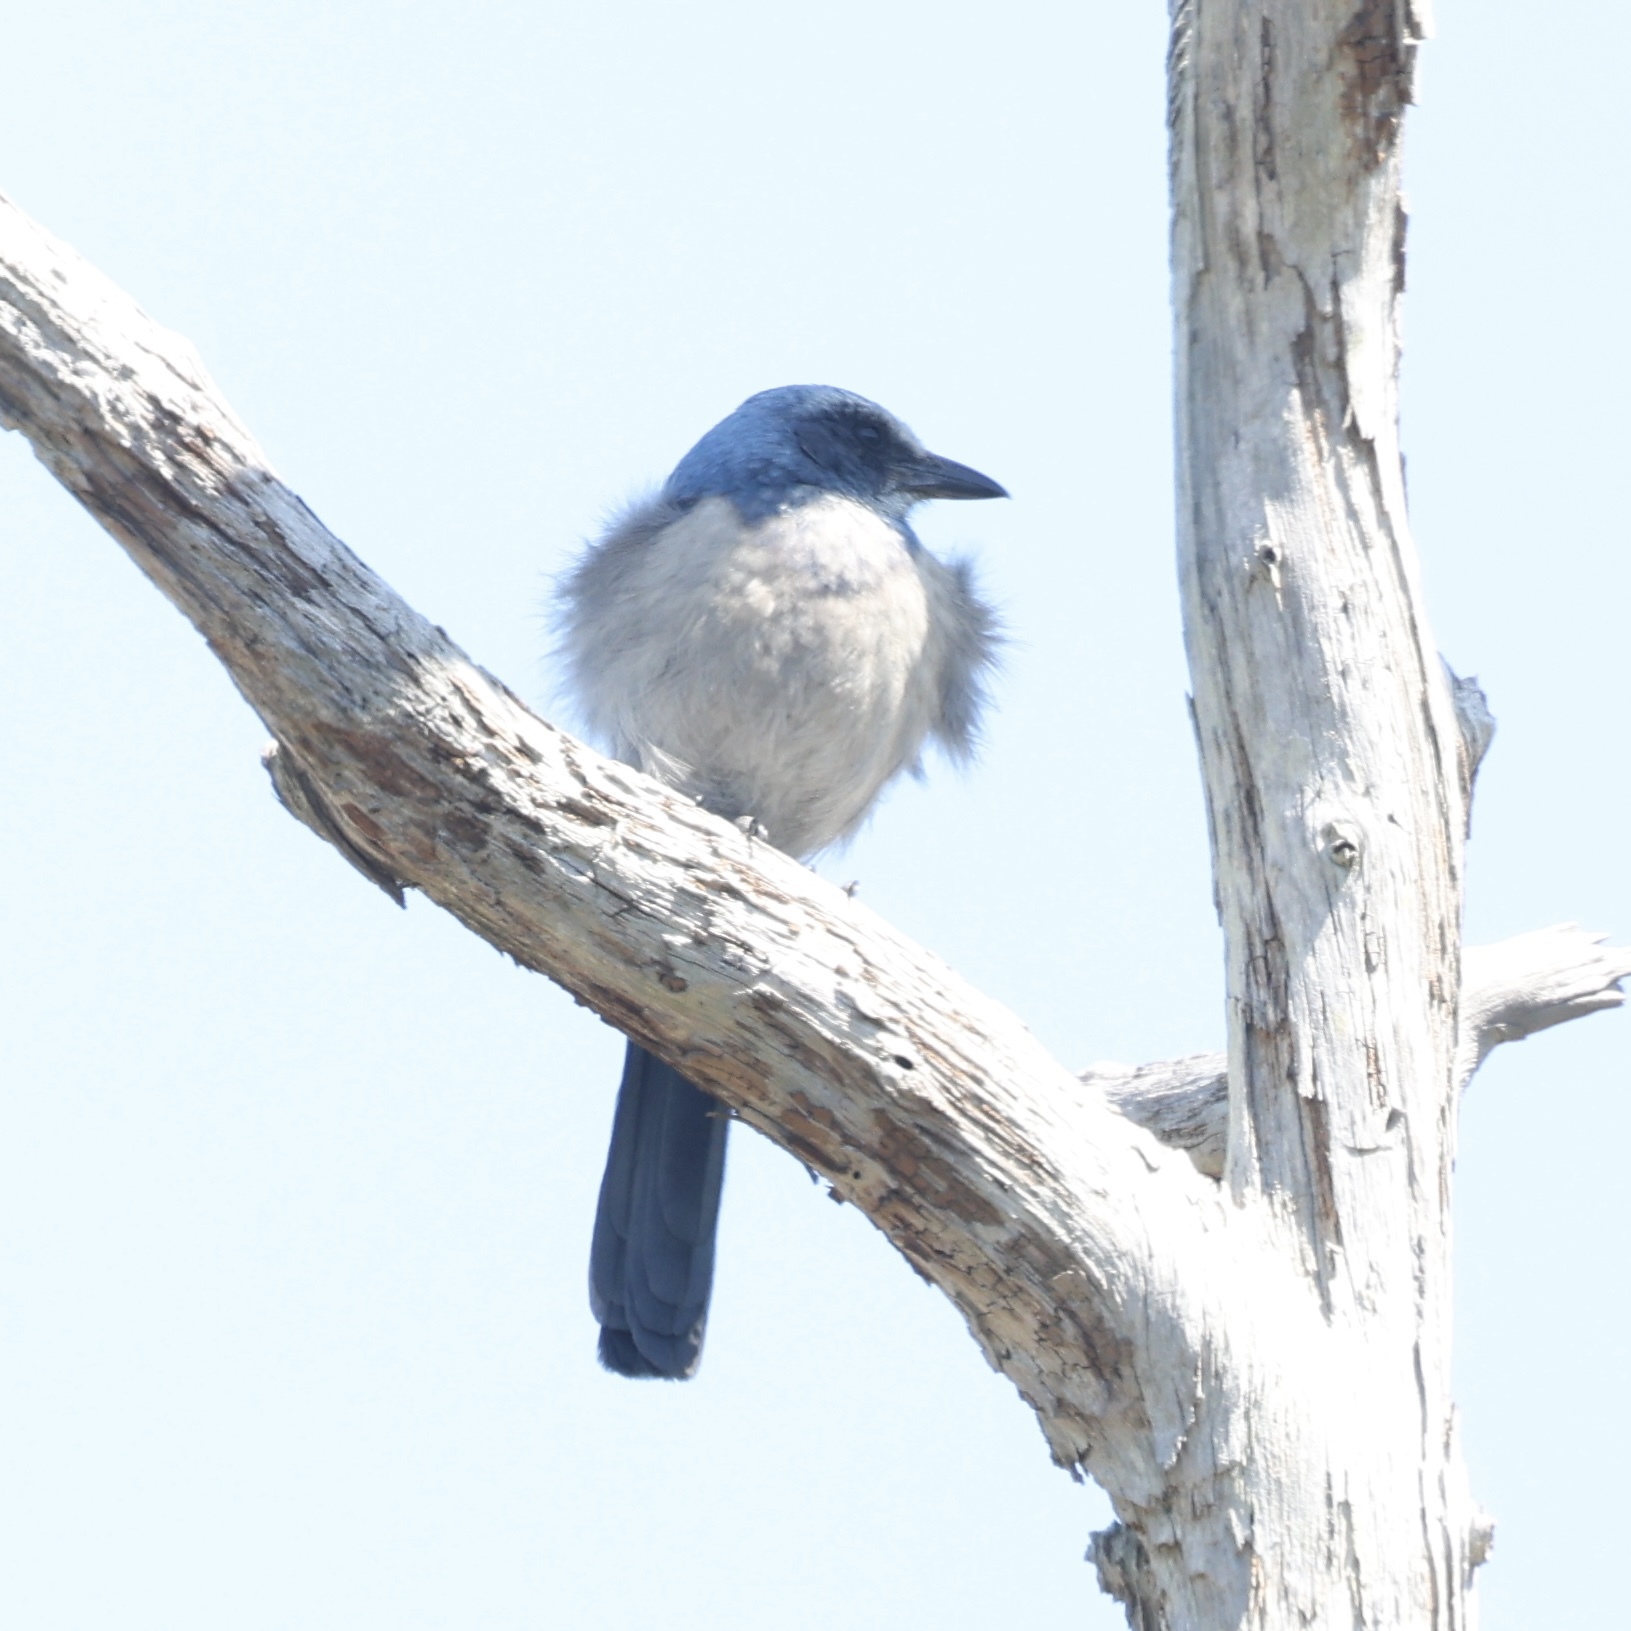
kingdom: Animalia
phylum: Chordata
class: Aves
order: Passeriformes
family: Corvidae
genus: Aphelocoma
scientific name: Aphelocoma coerulescens
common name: Florida scrub jay
